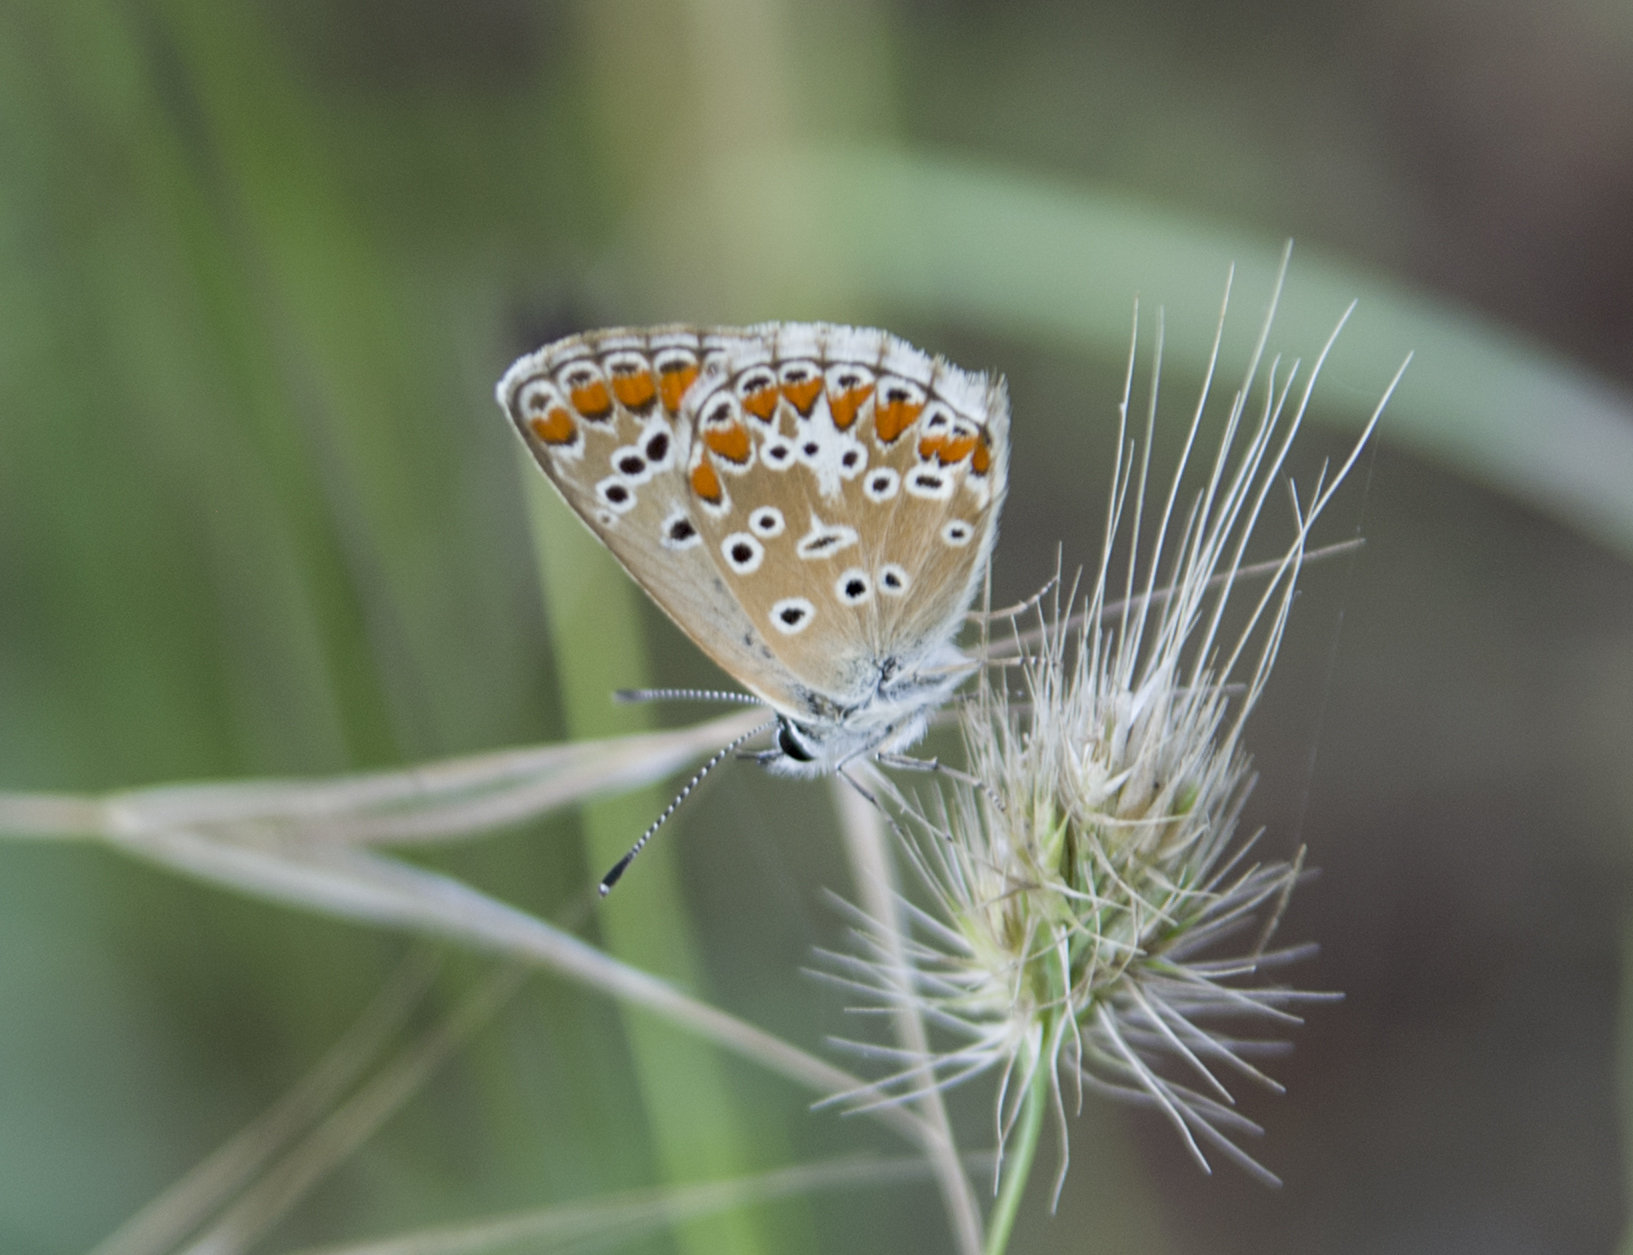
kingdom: Animalia
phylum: Arthropoda
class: Insecta
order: Lepidoptera
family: Lycaenidae
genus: Aricia
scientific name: Aricia agestis
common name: Brown argus
